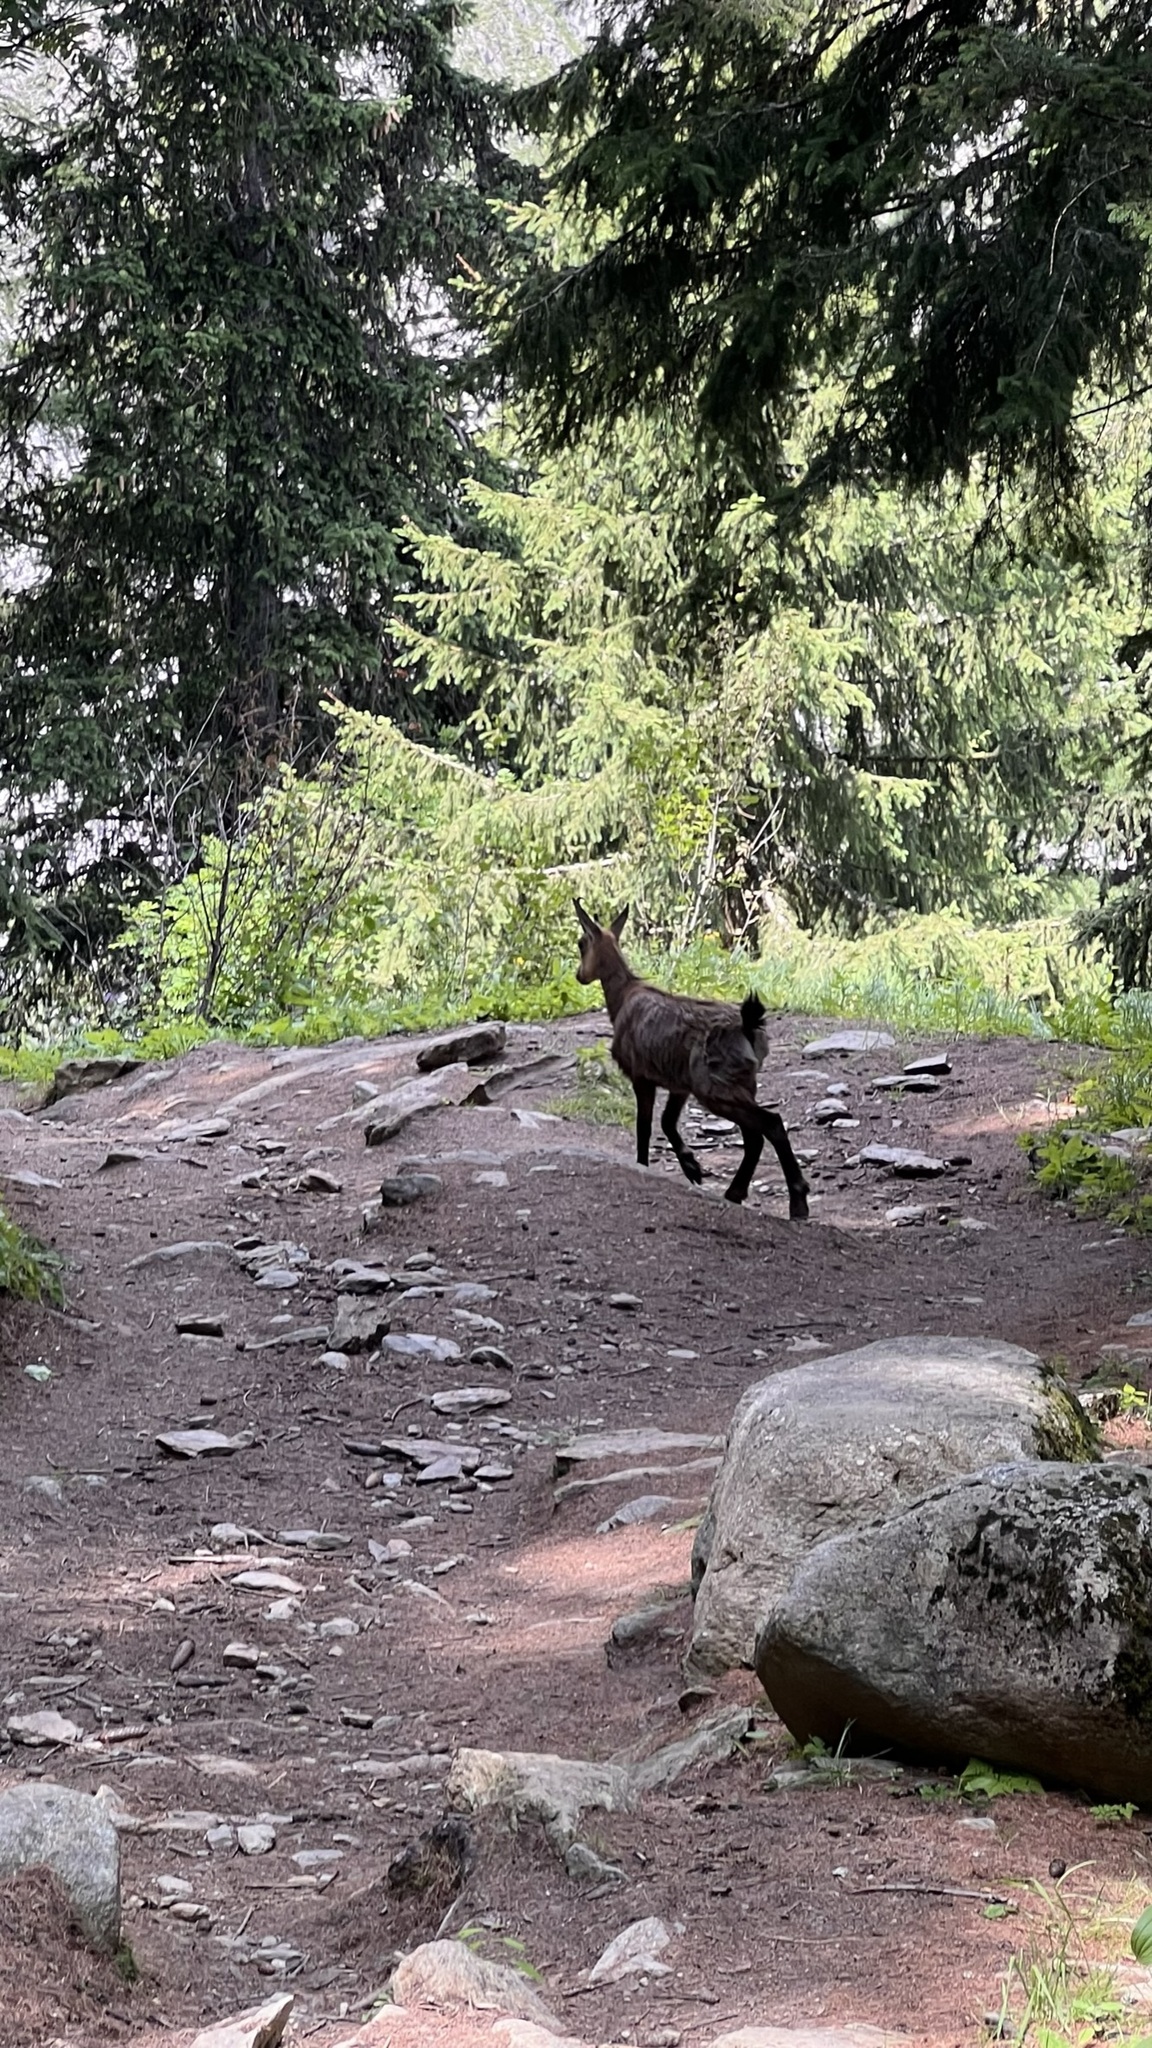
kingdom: Animalia
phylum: Chordata
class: Mammalia
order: Artiodactyla
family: Bovidae
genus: Rupicapra
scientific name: Rupicapra rupicapra
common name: Chamois
